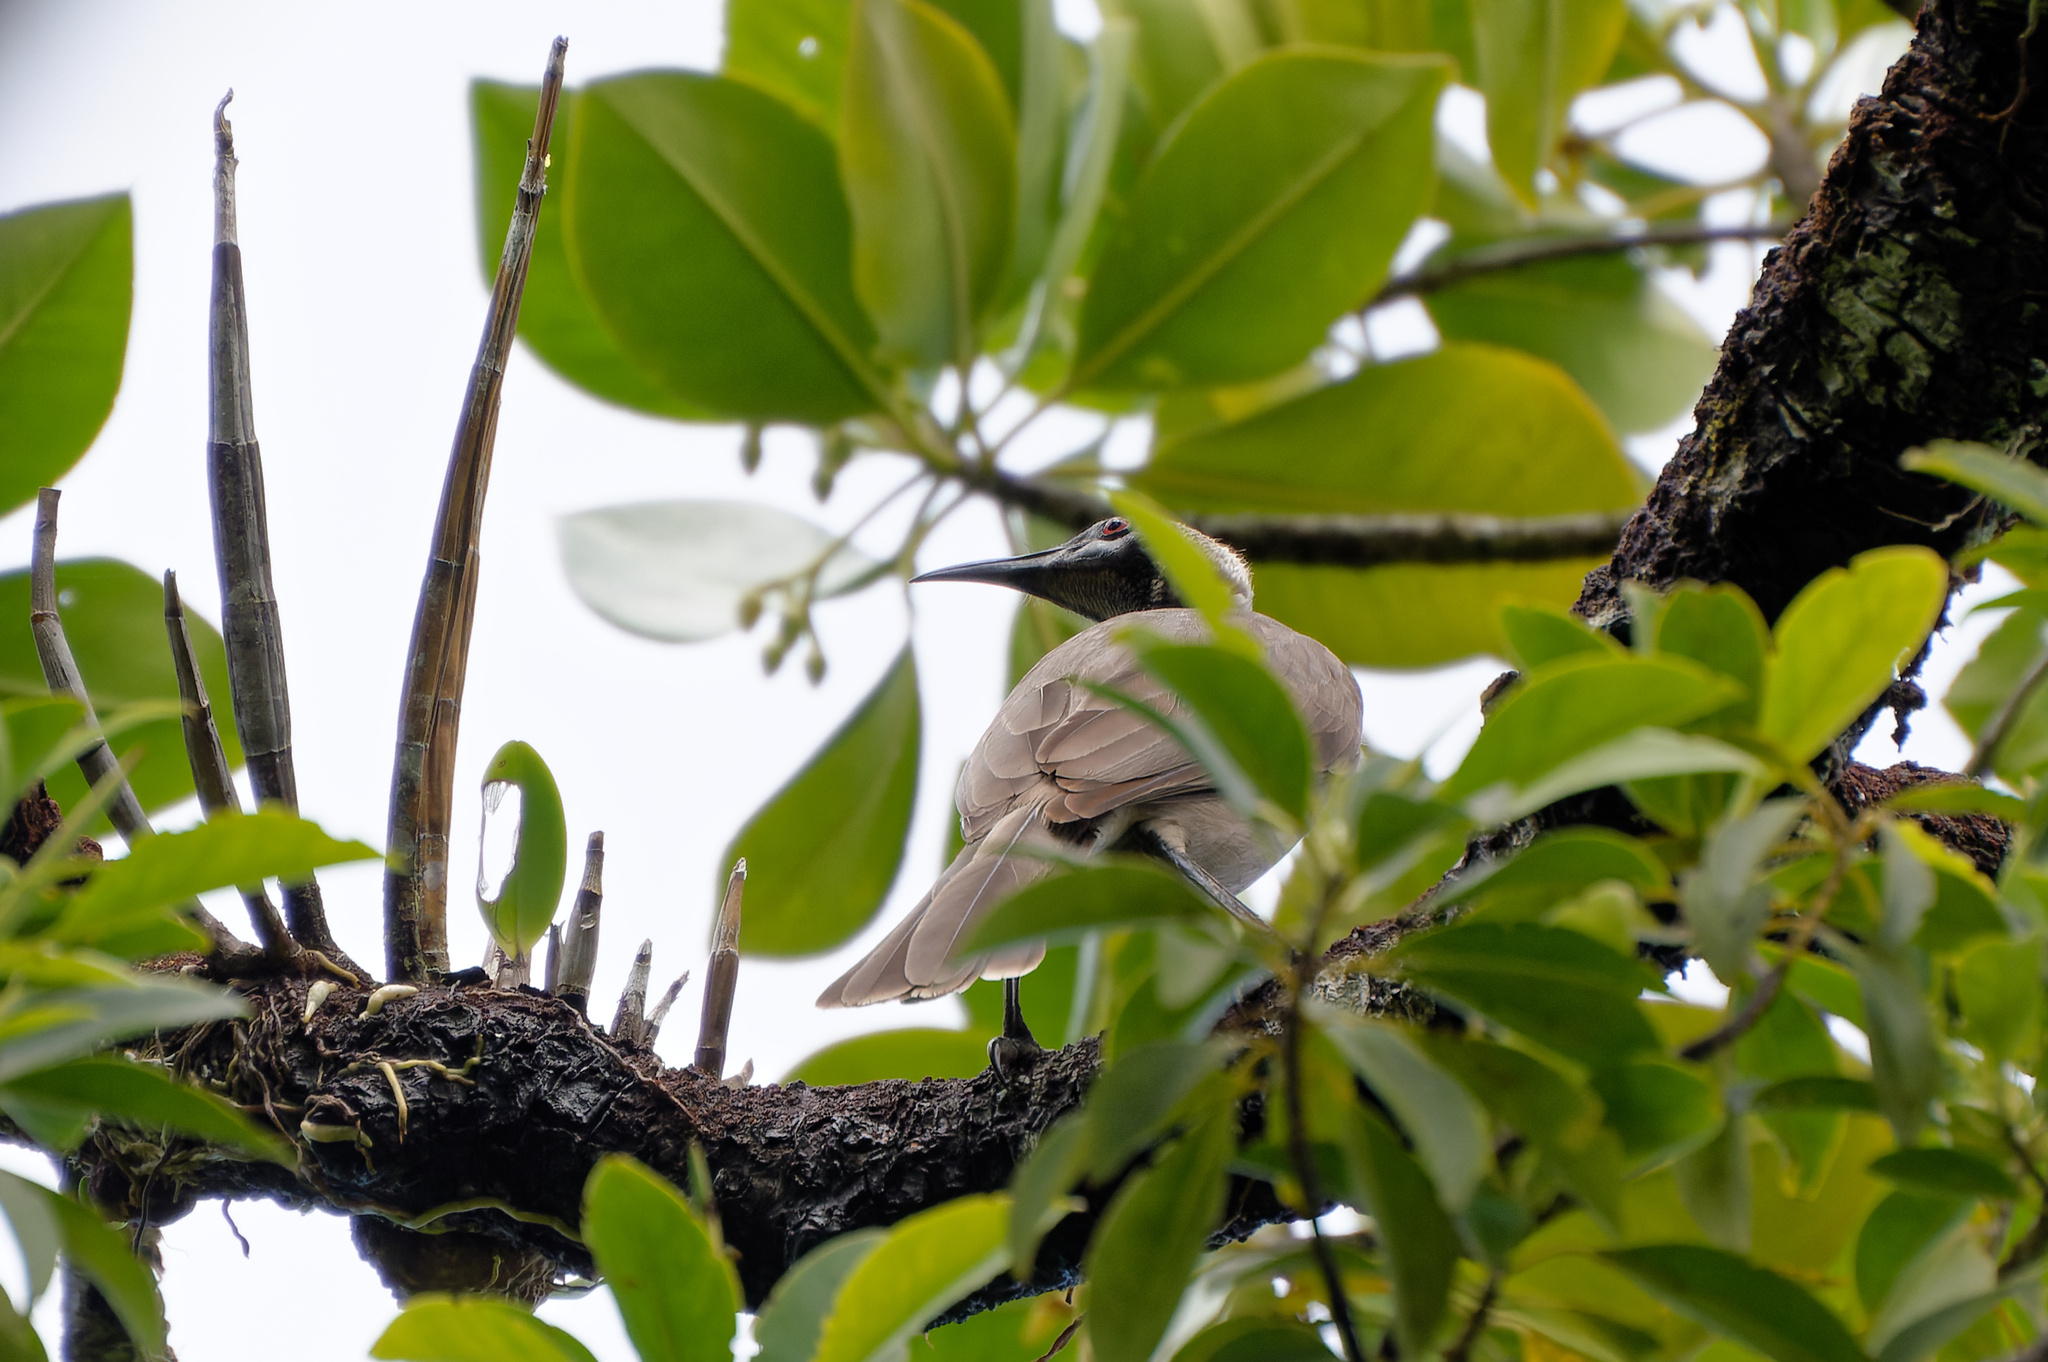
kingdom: Animalia
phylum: Chordata
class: Aves
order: Passeriformes
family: Meliphagidae
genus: Philemon
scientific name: Philemon buceroides
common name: Helmeted friarbird
